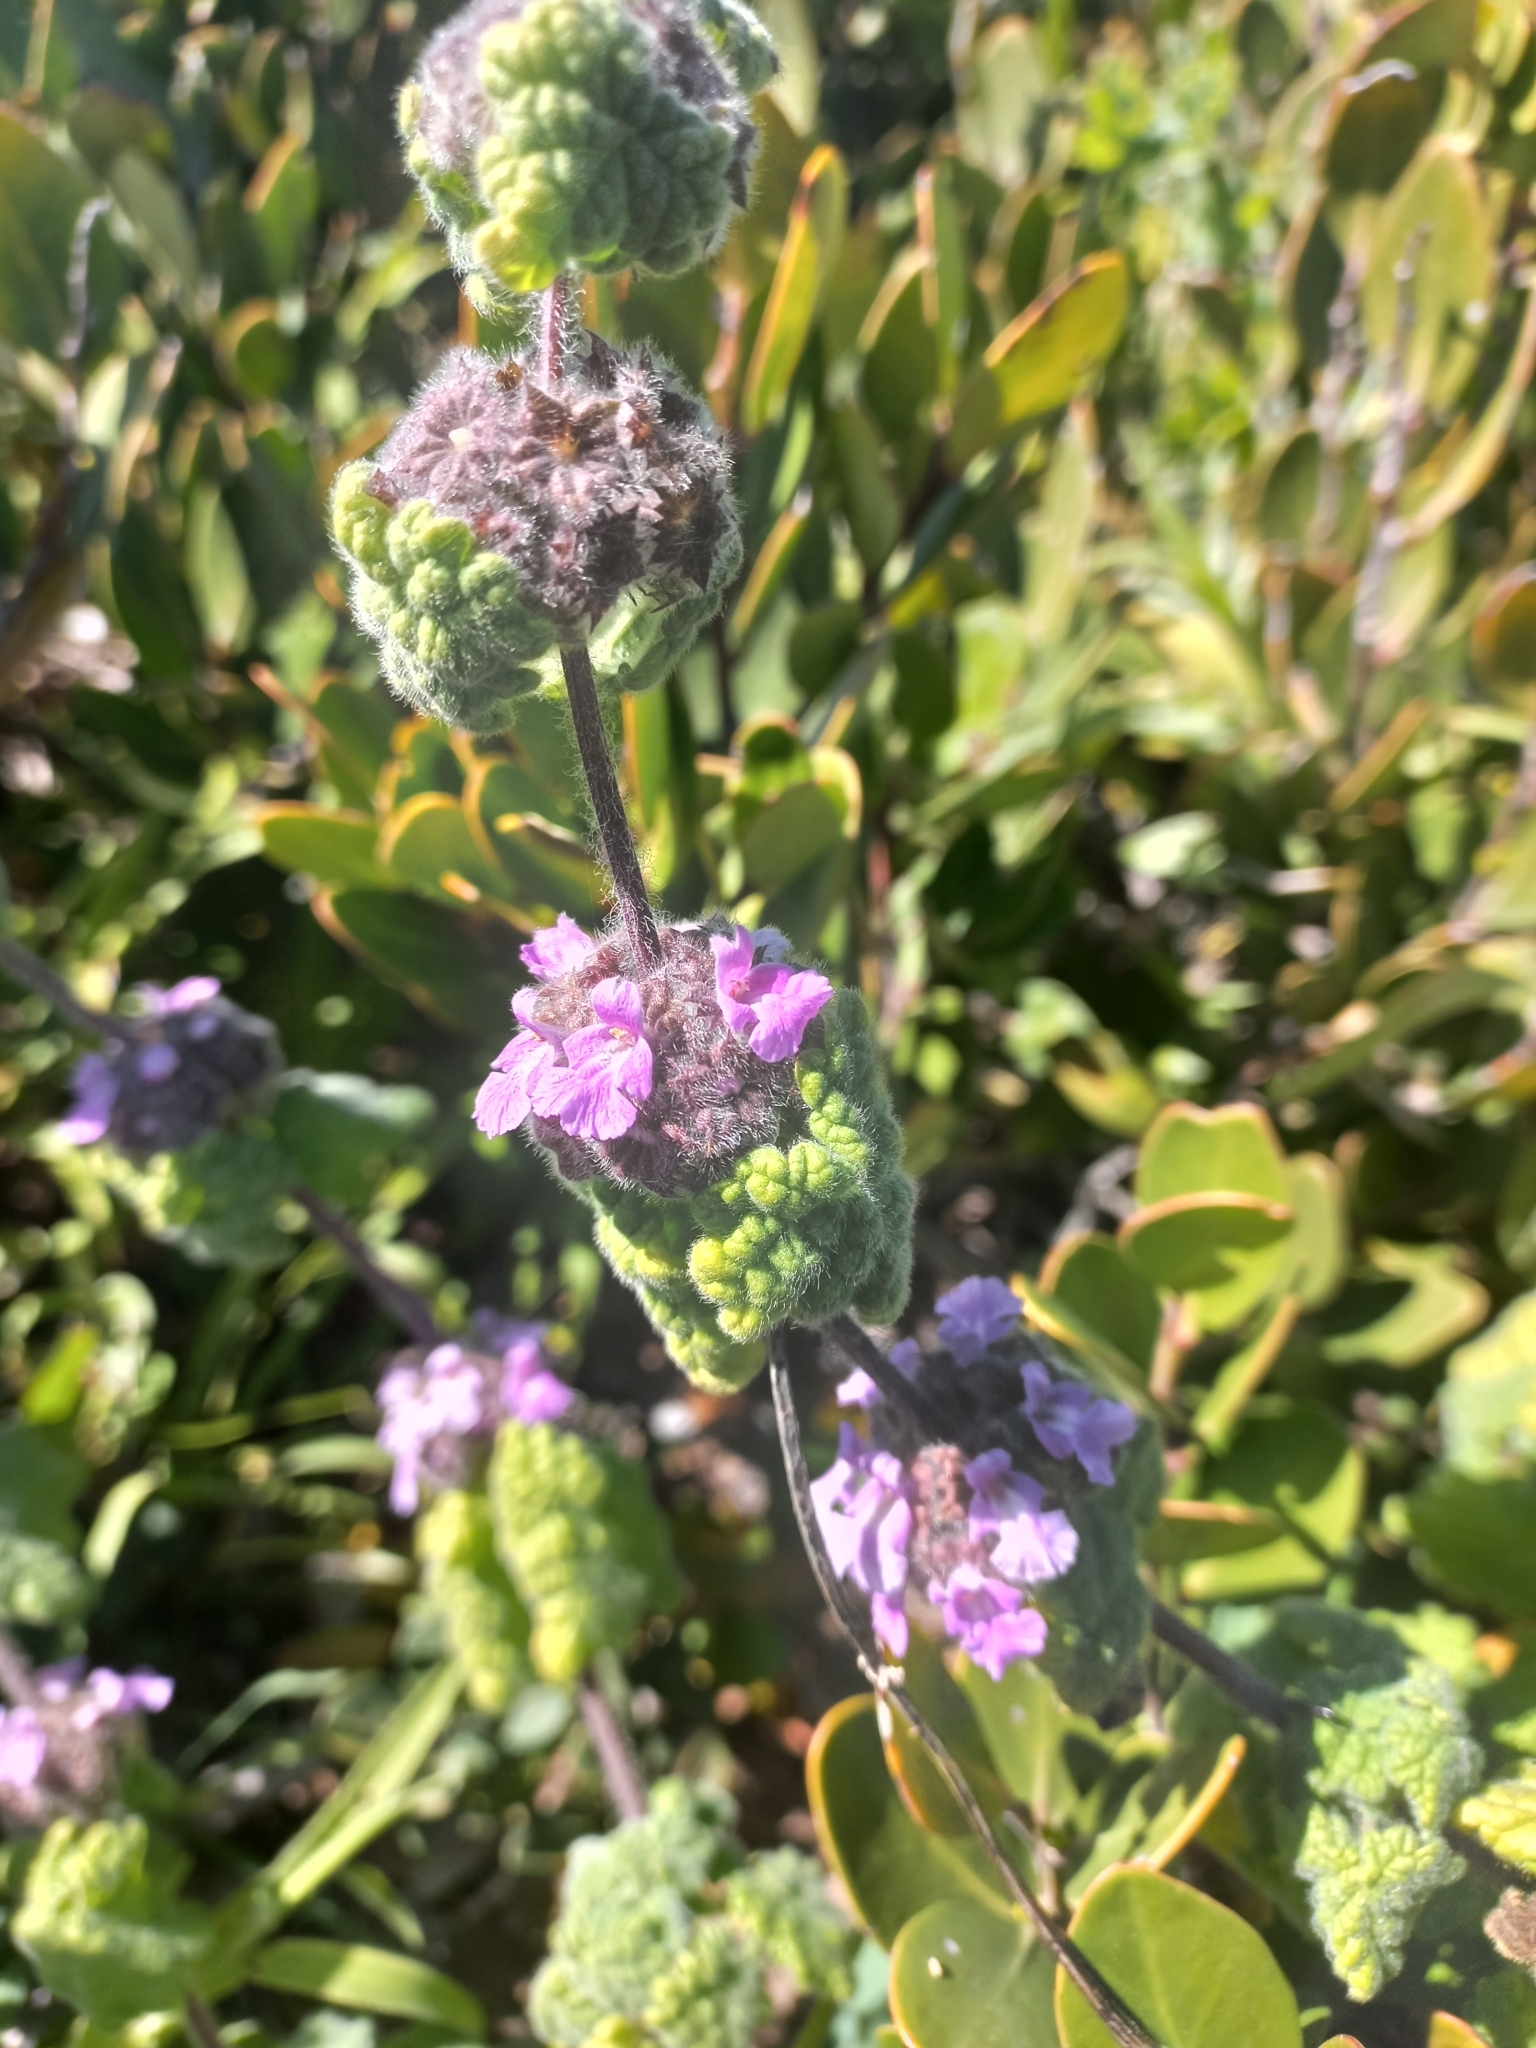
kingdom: Plantae
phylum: Tracheophyta
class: Magnoliopsida
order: Lamiales
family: Lamiaceae
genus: Pseudodictamnus
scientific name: Pseudodictamnus africanus
